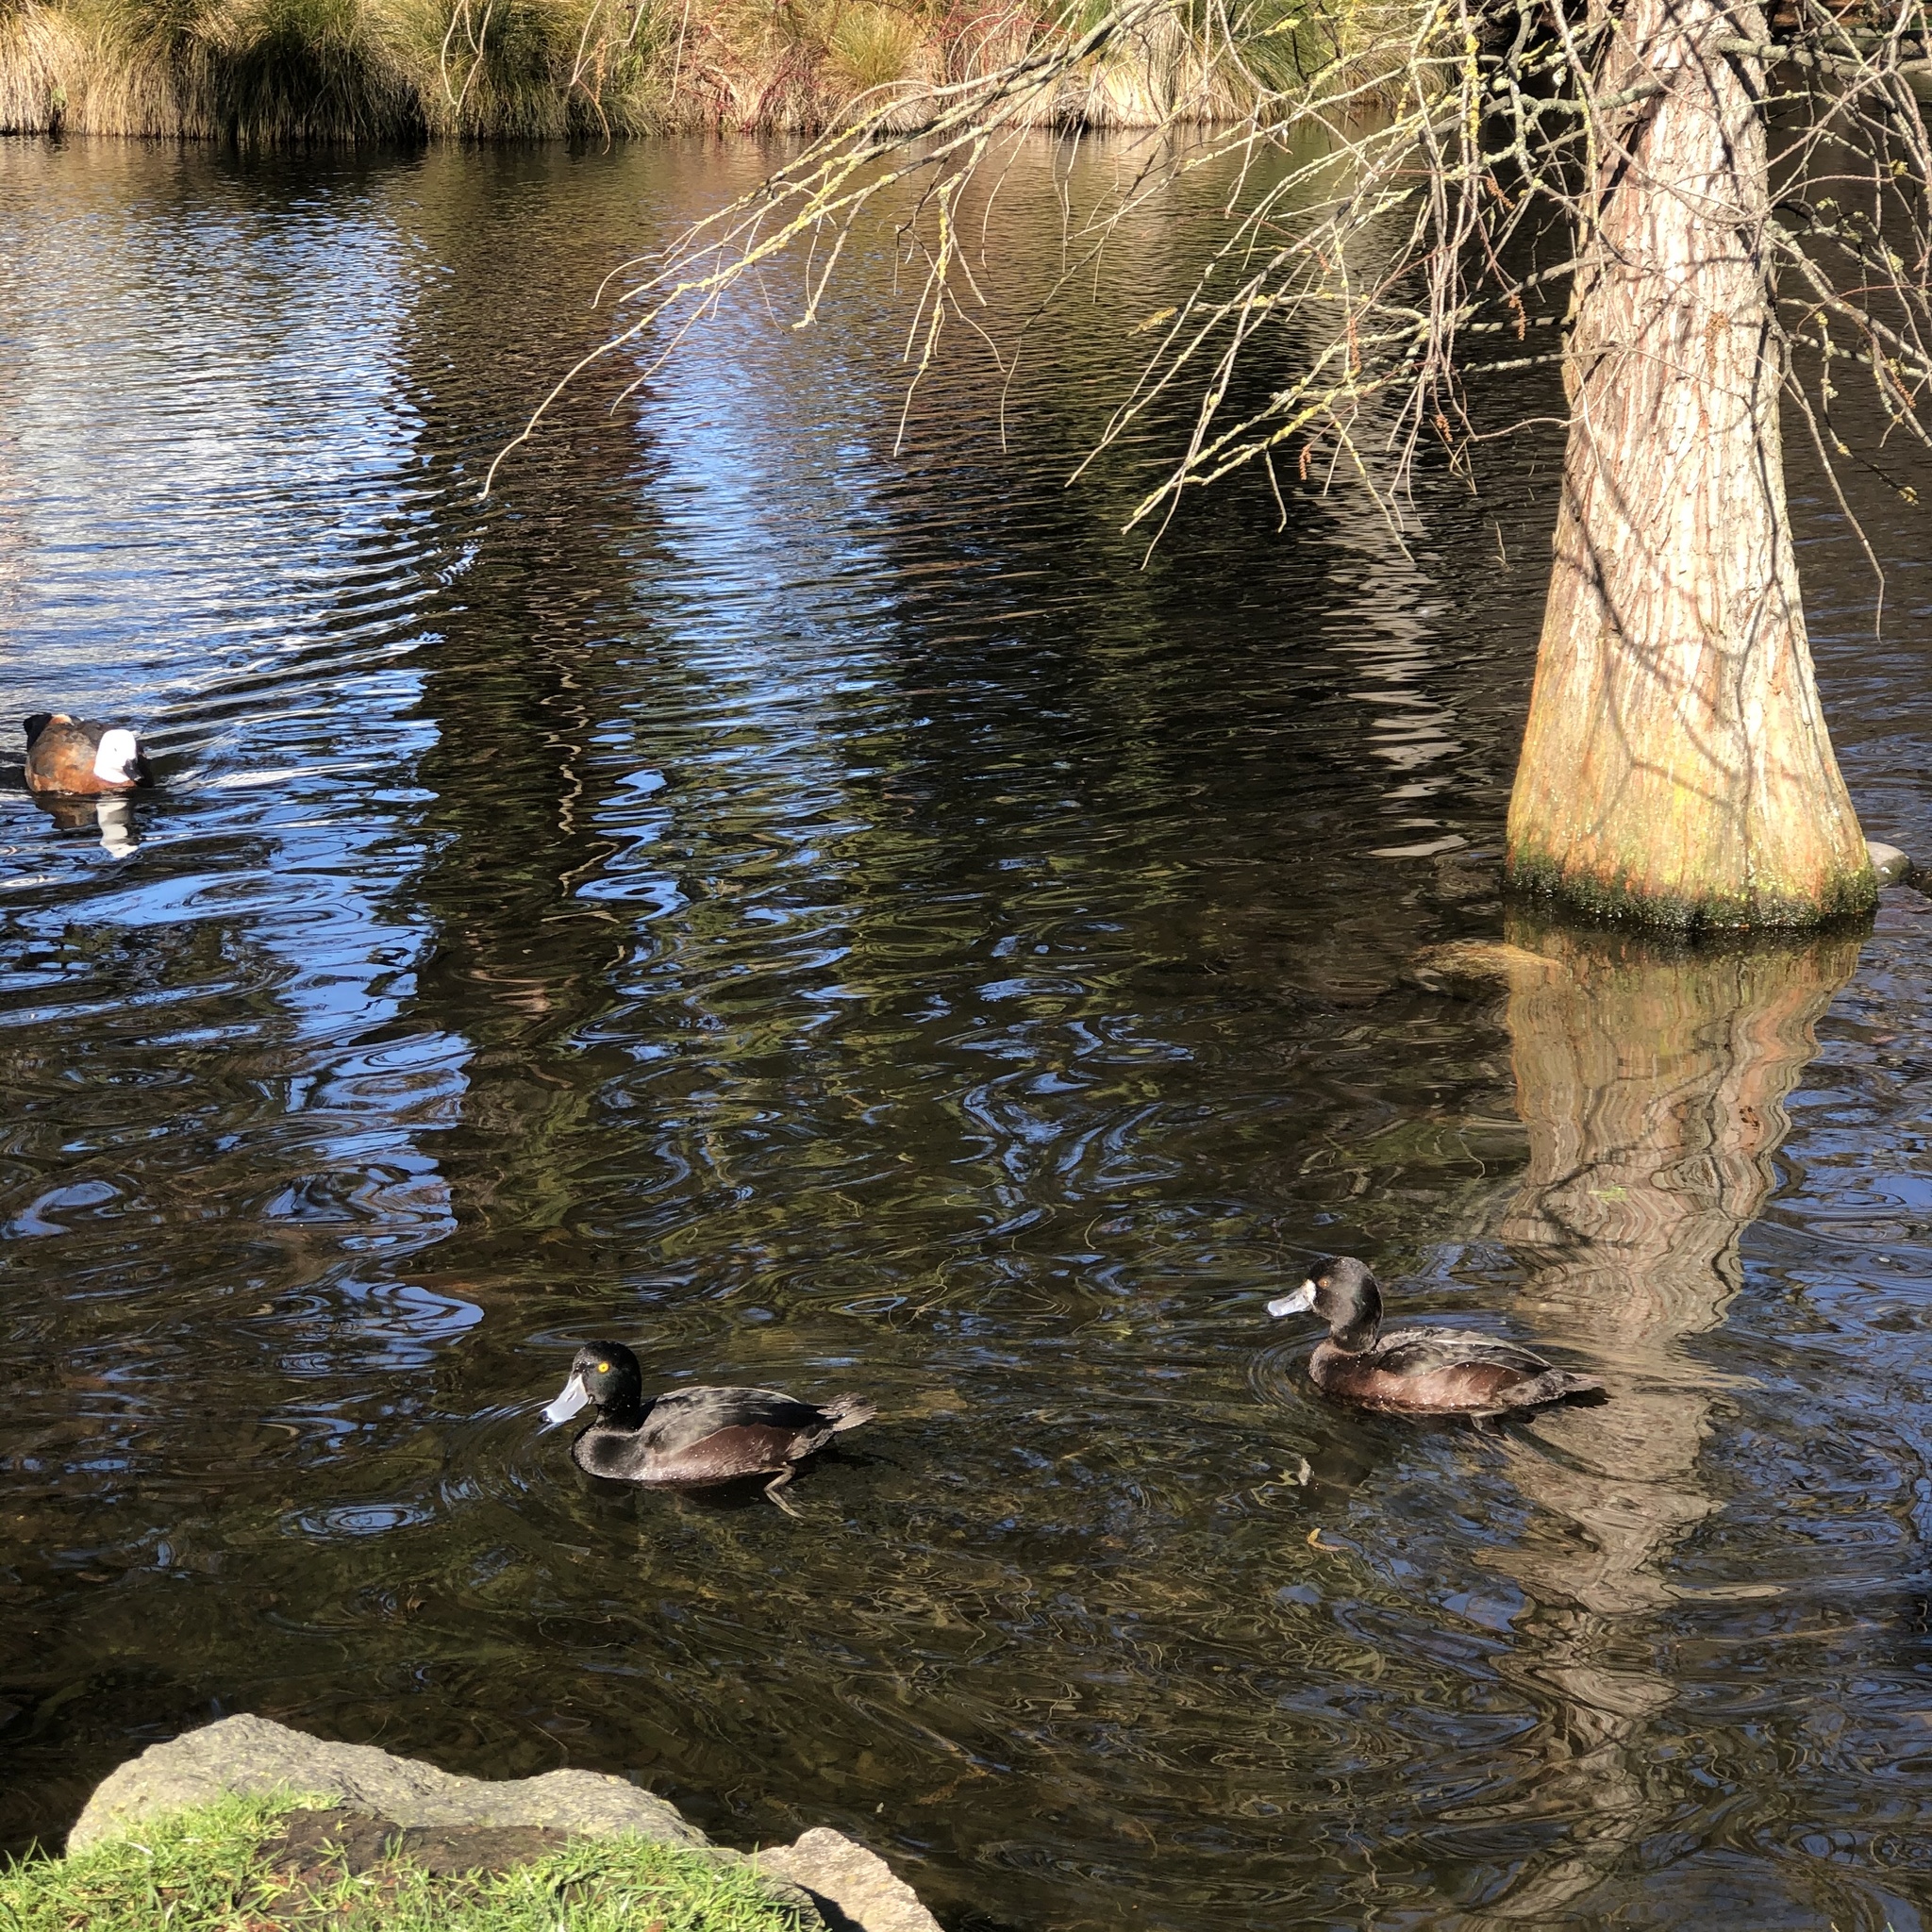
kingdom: Animalia
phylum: Chordata
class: Aves
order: Anseriformes
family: Anatidae
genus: Aythya
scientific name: Aythya novaeseelandiae
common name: New zealand scaup
